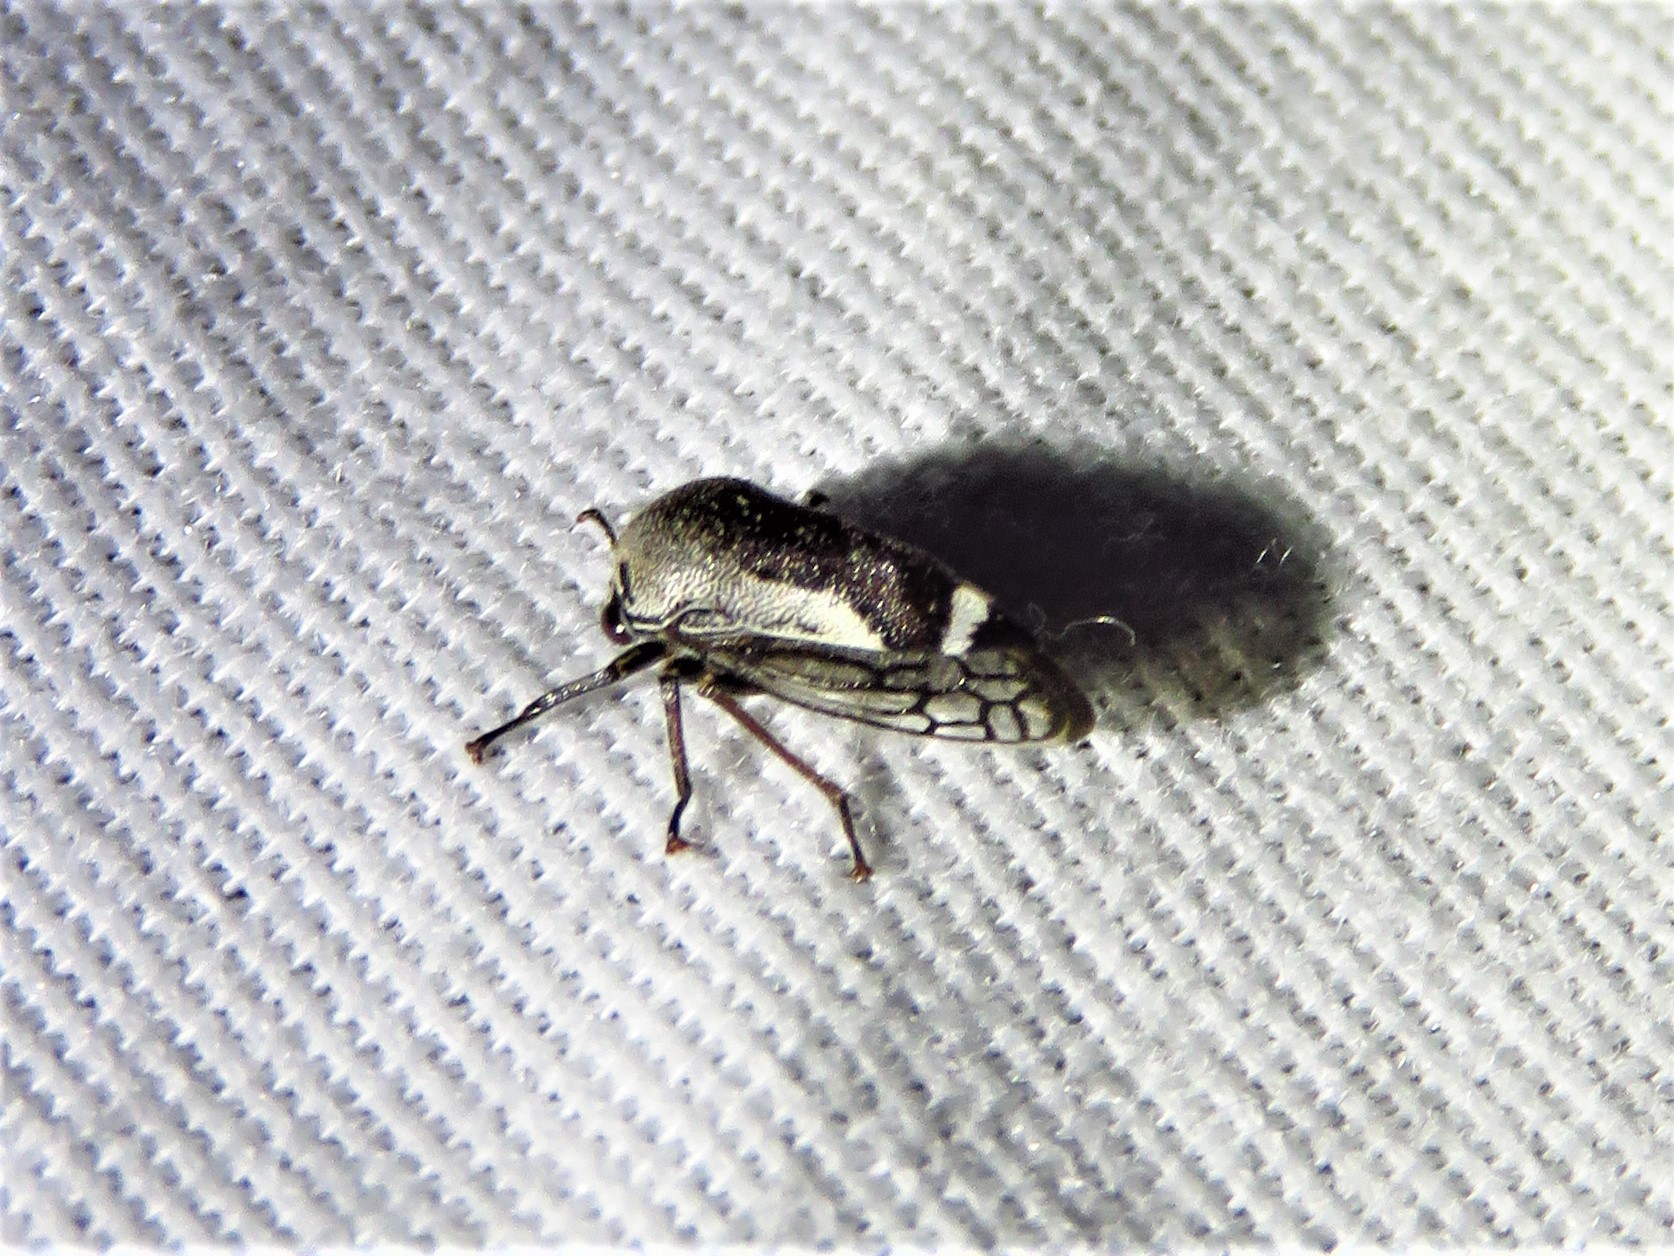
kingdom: Animalia
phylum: Arthropoda
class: Insecta
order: Hemiptera
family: Membracidae
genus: Xantholobus
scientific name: Xantholobus nigrocincta
